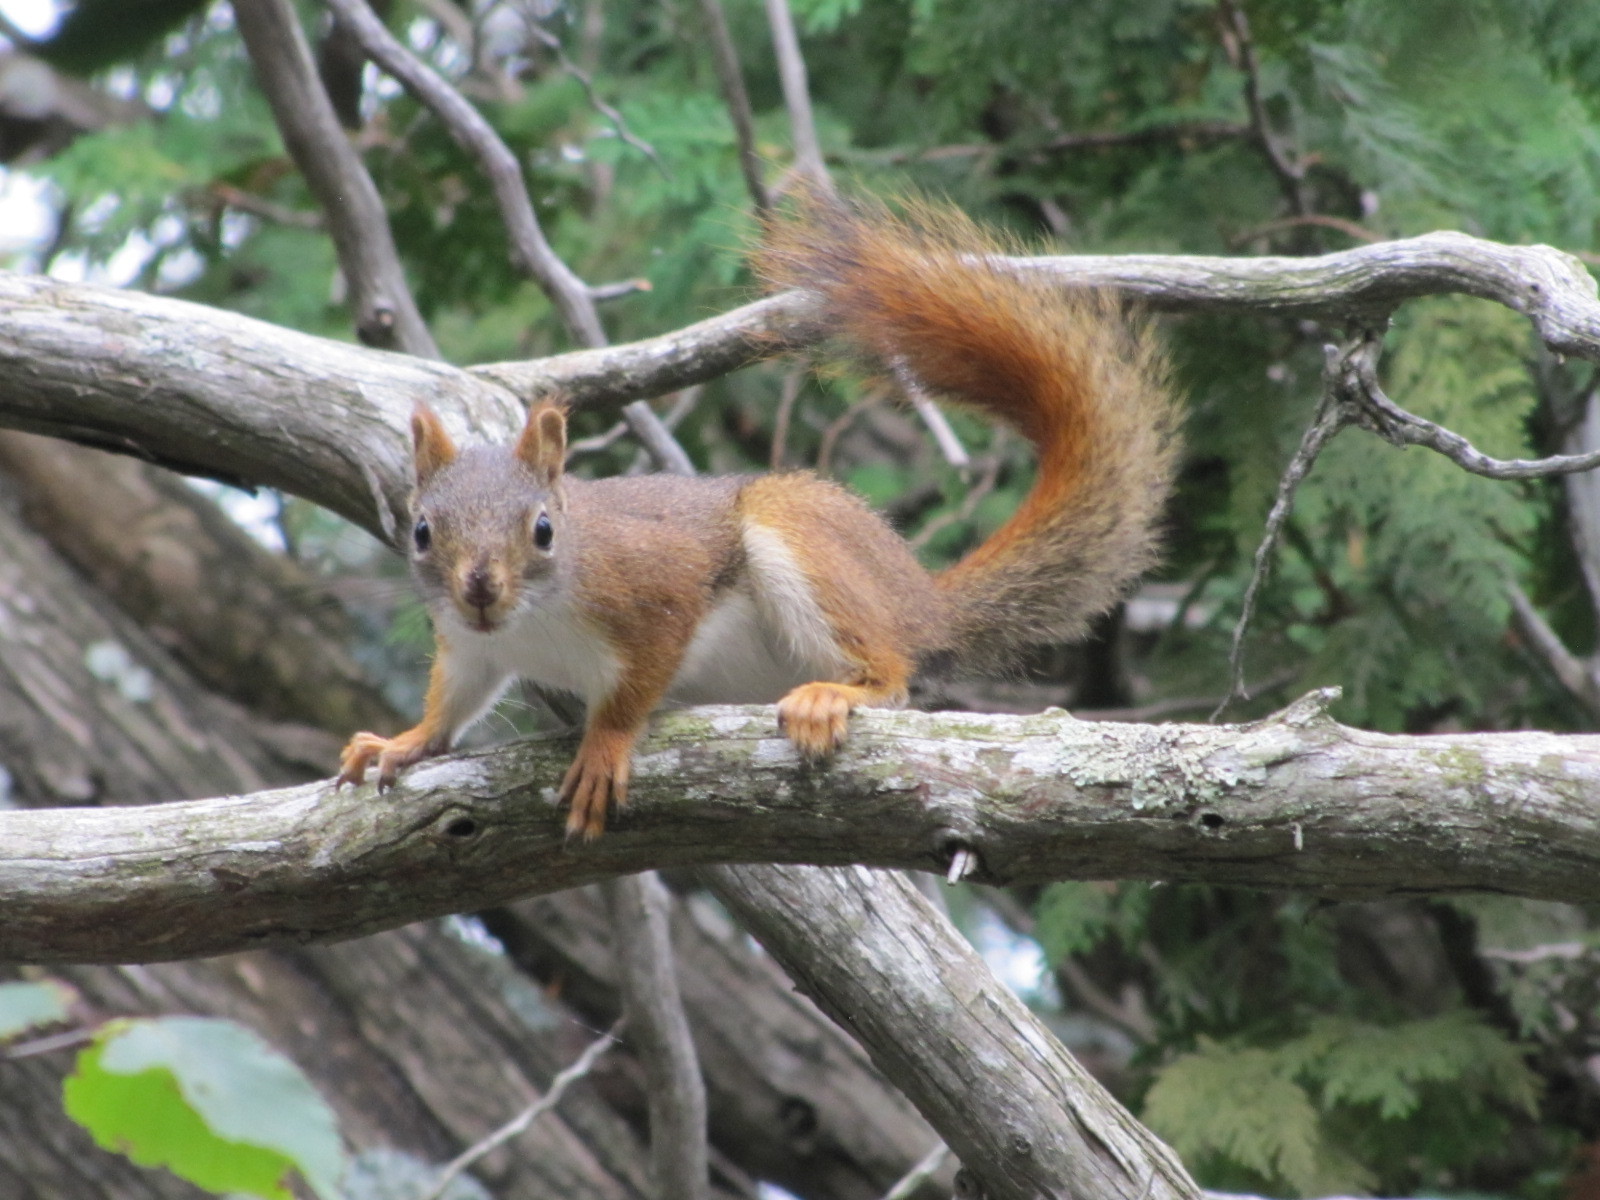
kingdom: Animalia
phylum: Chordata
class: Mammalia
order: Rodentia
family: Sciuridae
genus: Tamiasciurus
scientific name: Tamiasciurus hudsonicus
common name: Red squirrel
